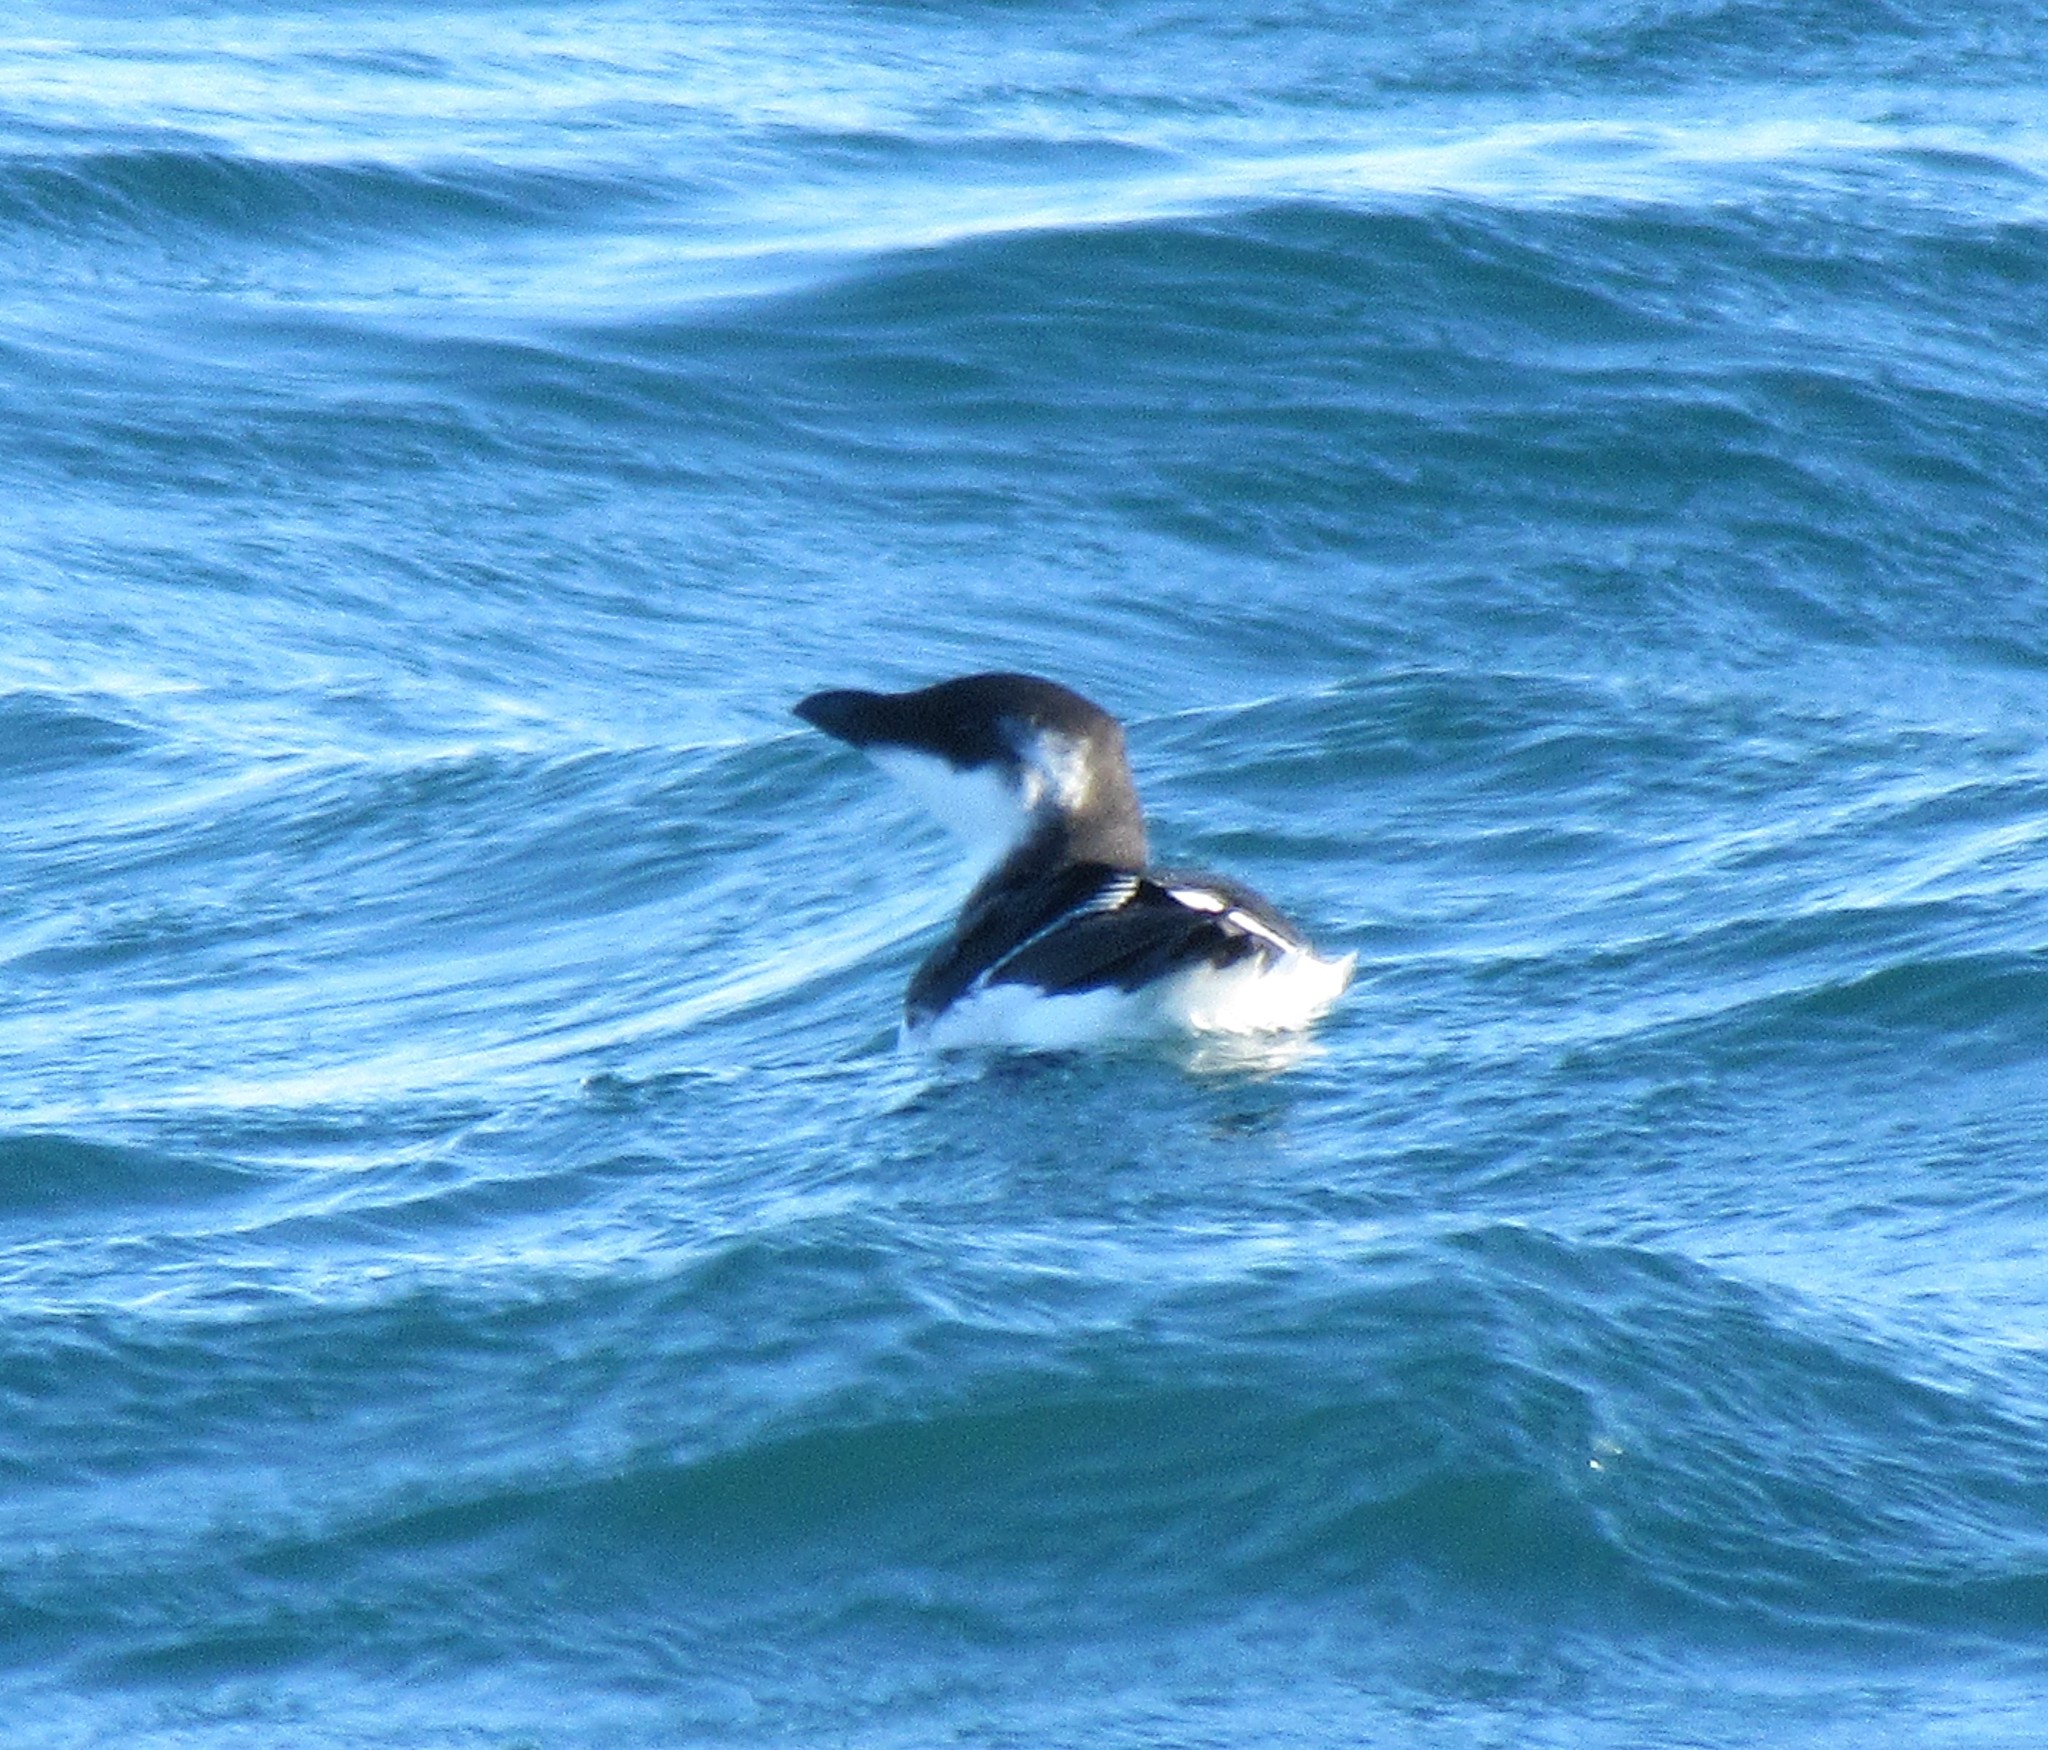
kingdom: Animalia
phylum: Chordata
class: Aves
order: Charadriiformes
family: Alcidae
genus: Alca
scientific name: Alca torda
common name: Razorbill
